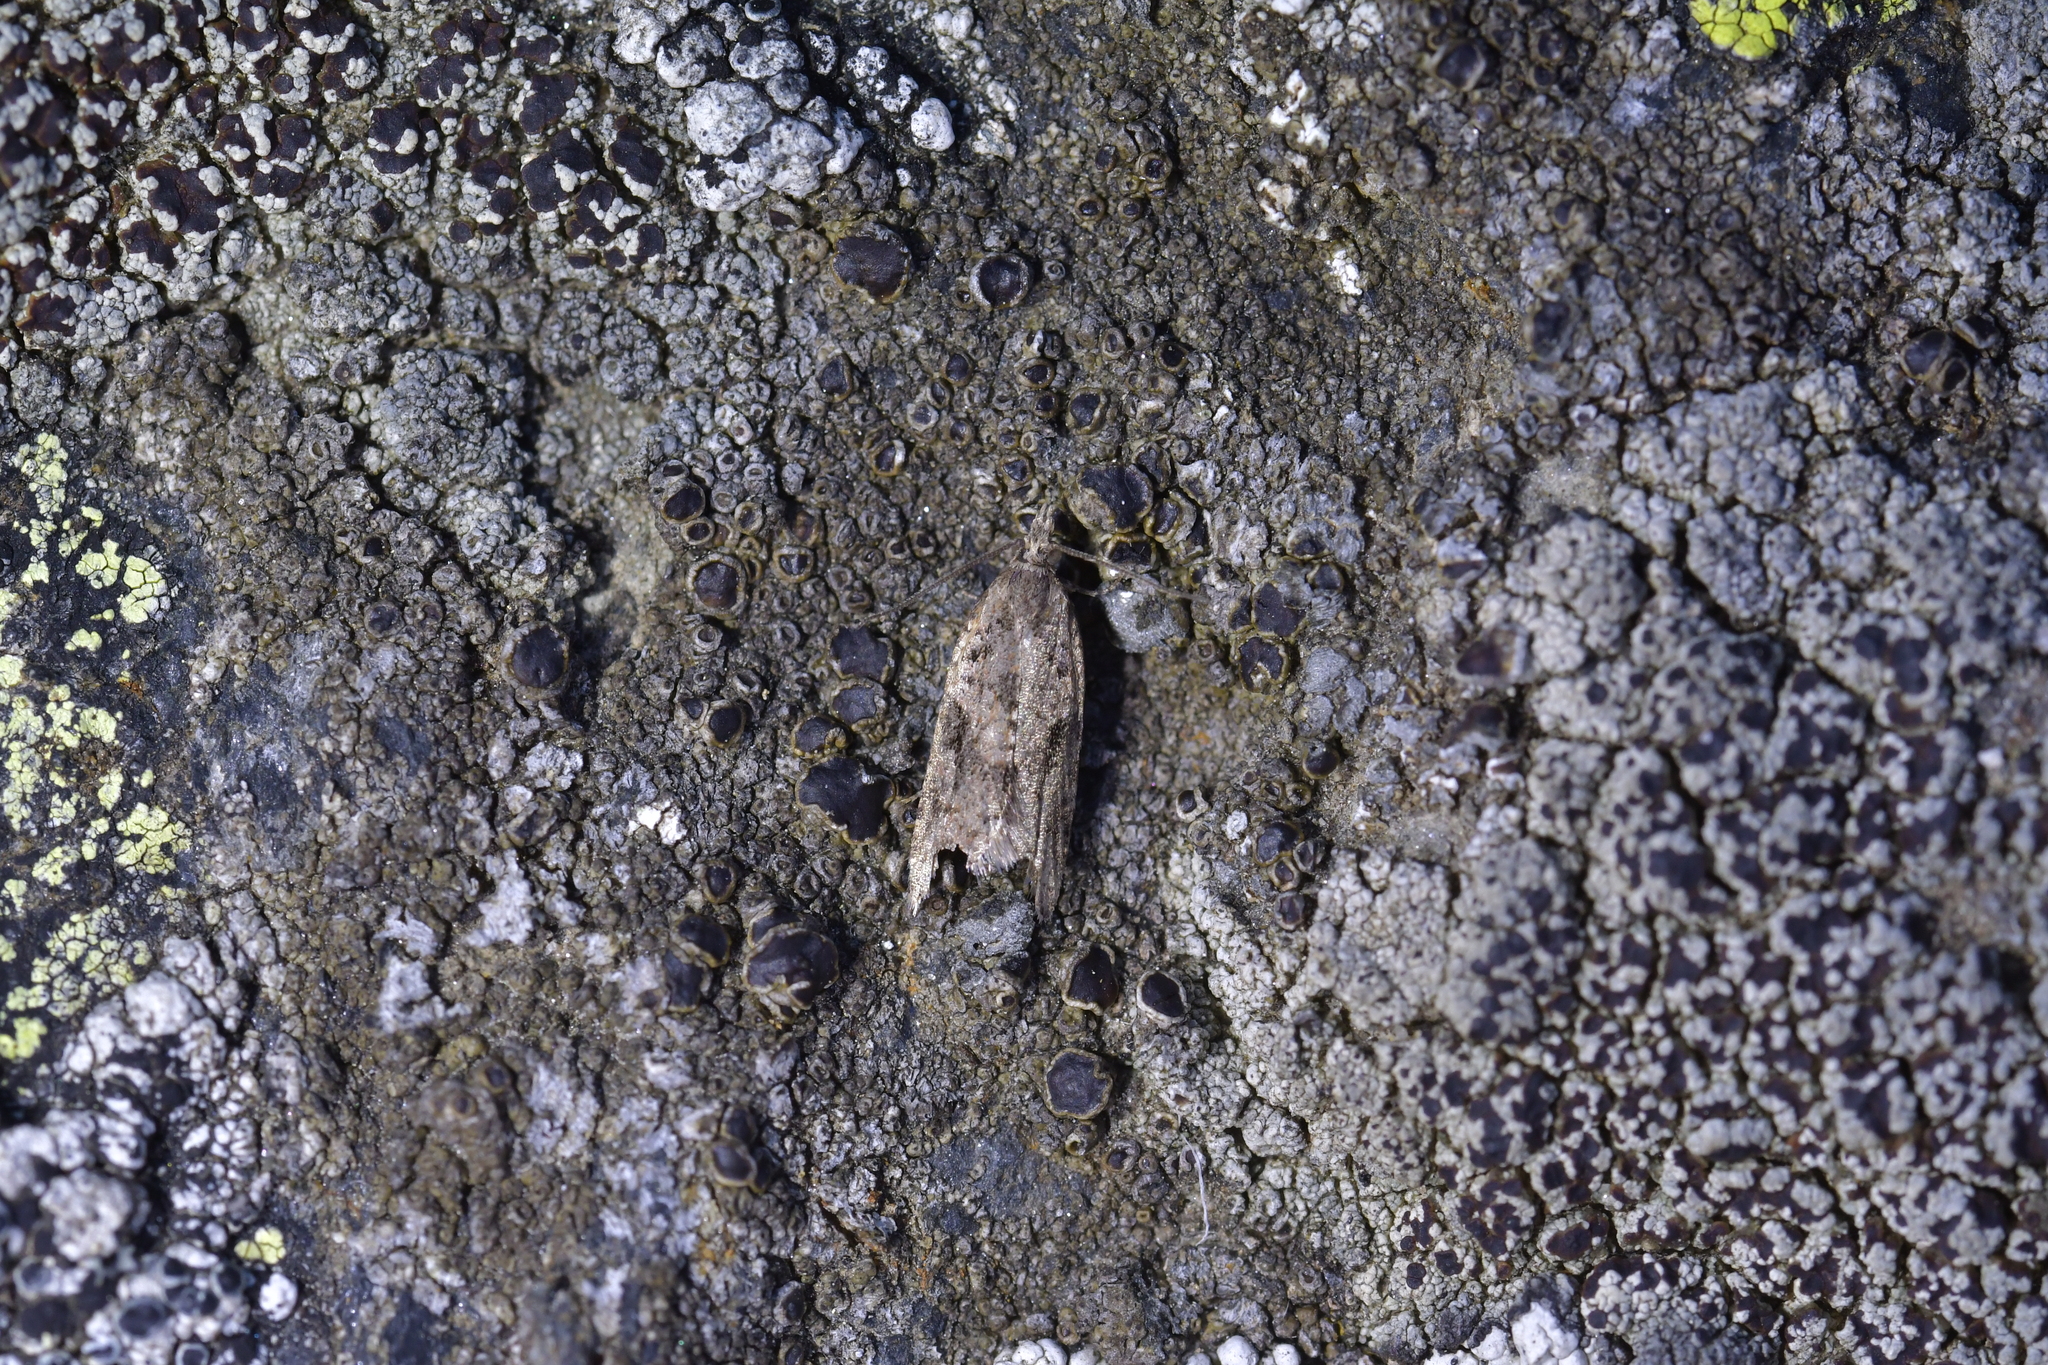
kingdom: Animalia
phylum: Arthropoda
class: Insecta
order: Lepidoptera
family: Tortricidae
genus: Capua
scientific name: Capua semiferana
